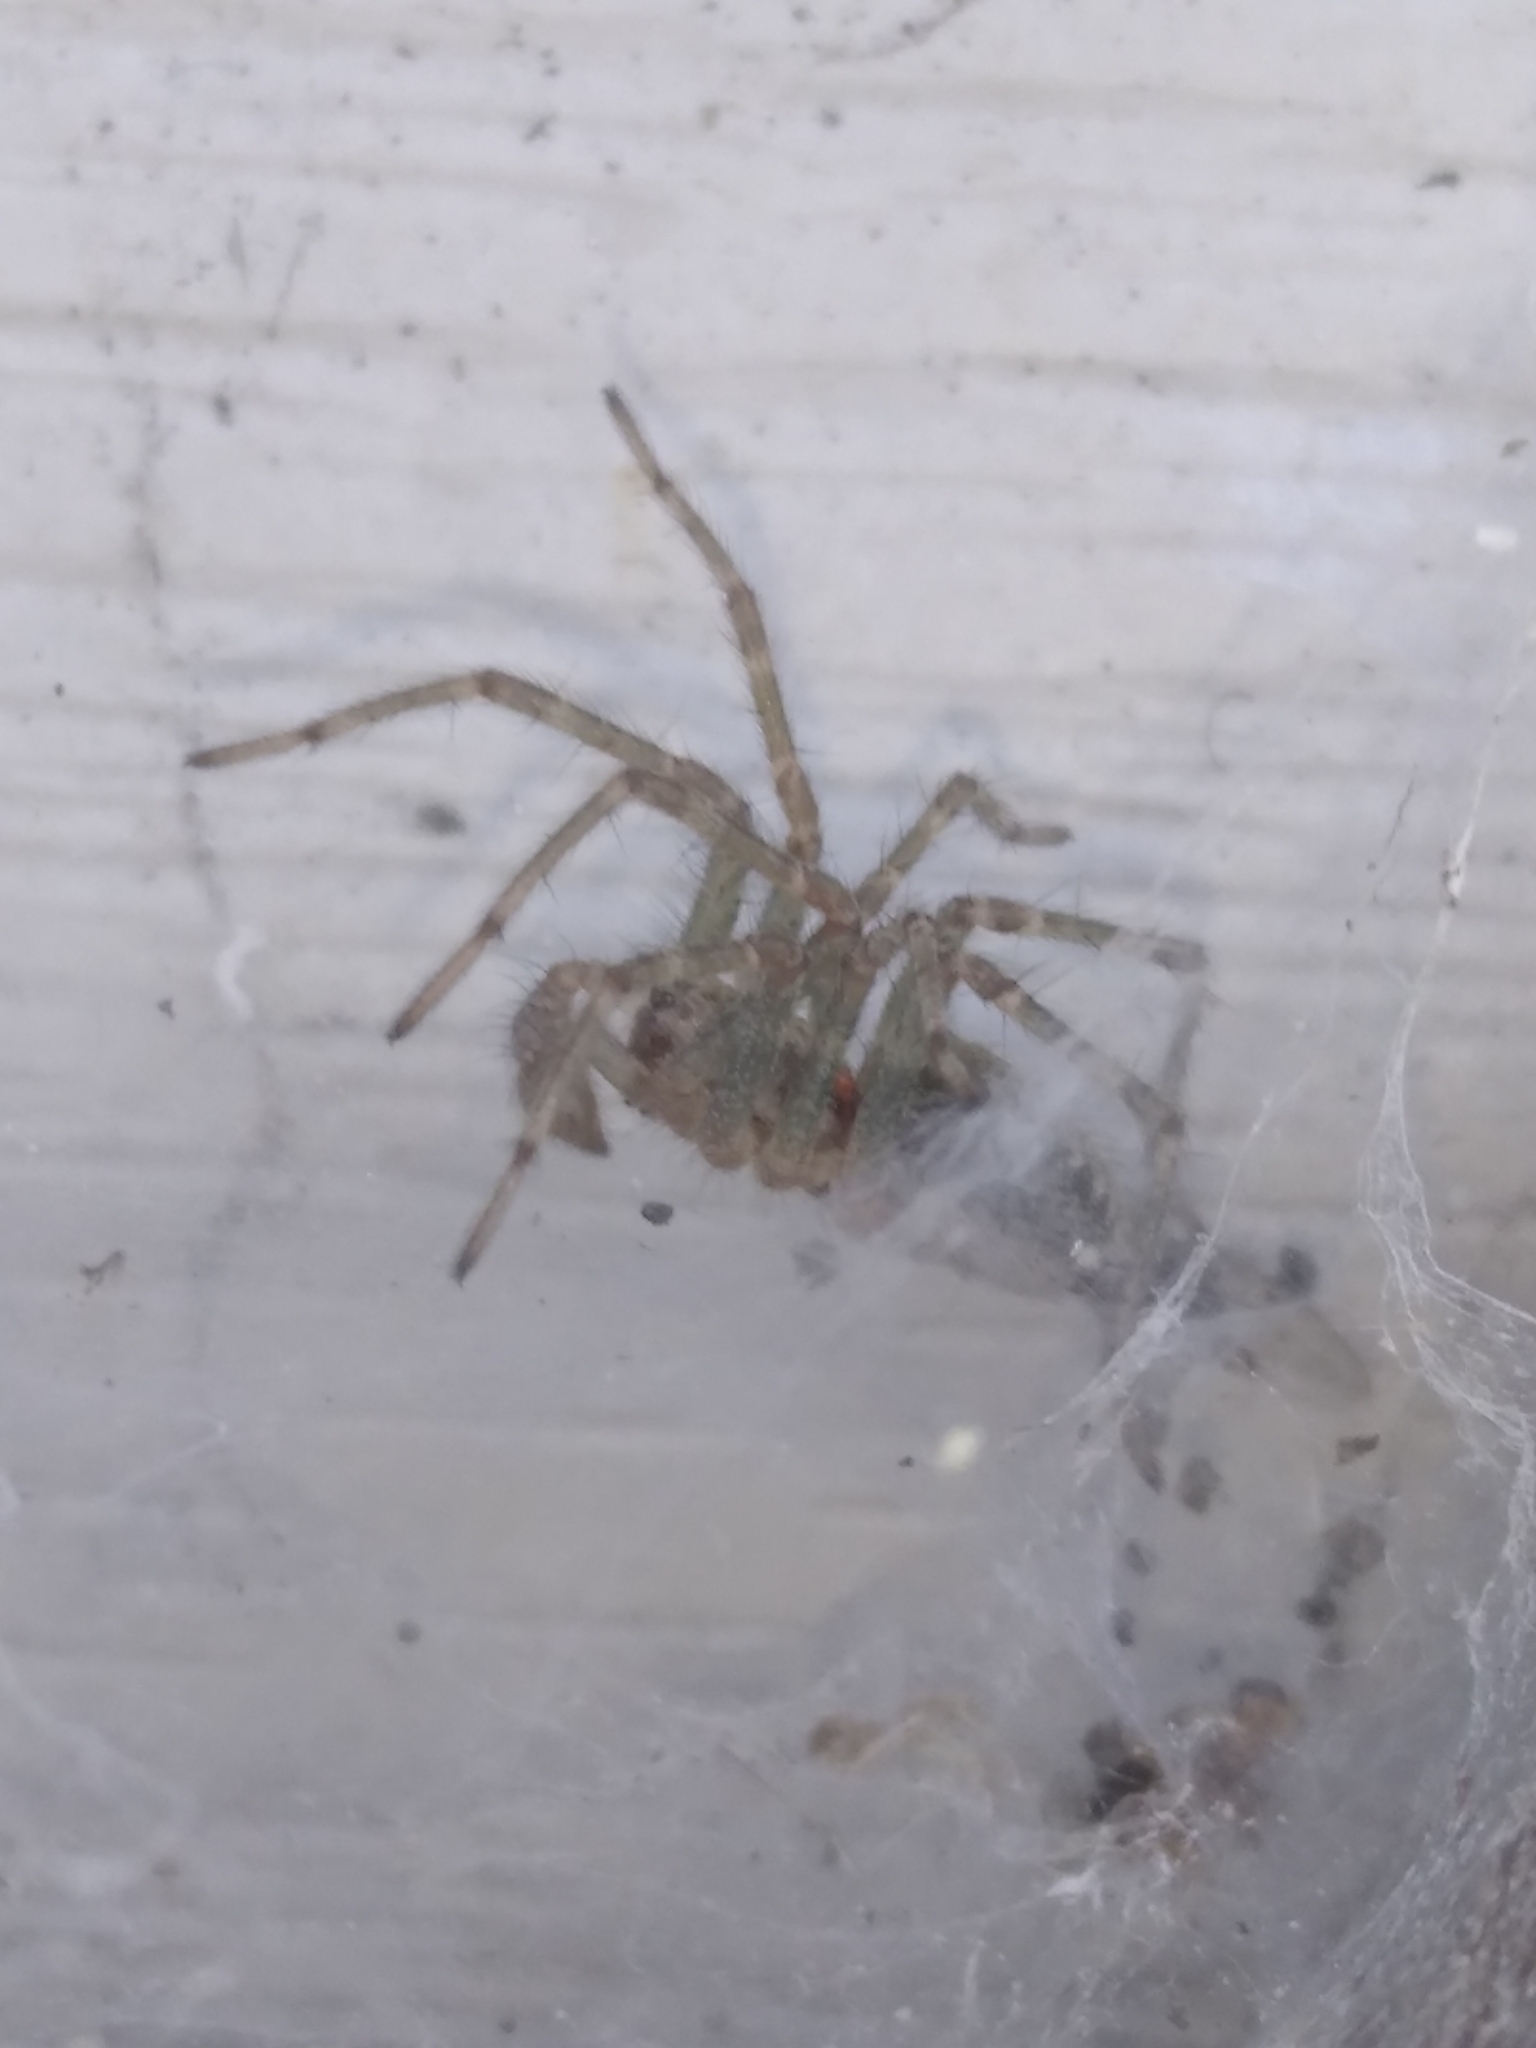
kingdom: Animalia
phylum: Arthropoda
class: Arachnida
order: Araneae
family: Agelenidae
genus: Allagelena
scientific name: Allagelena gracilens
